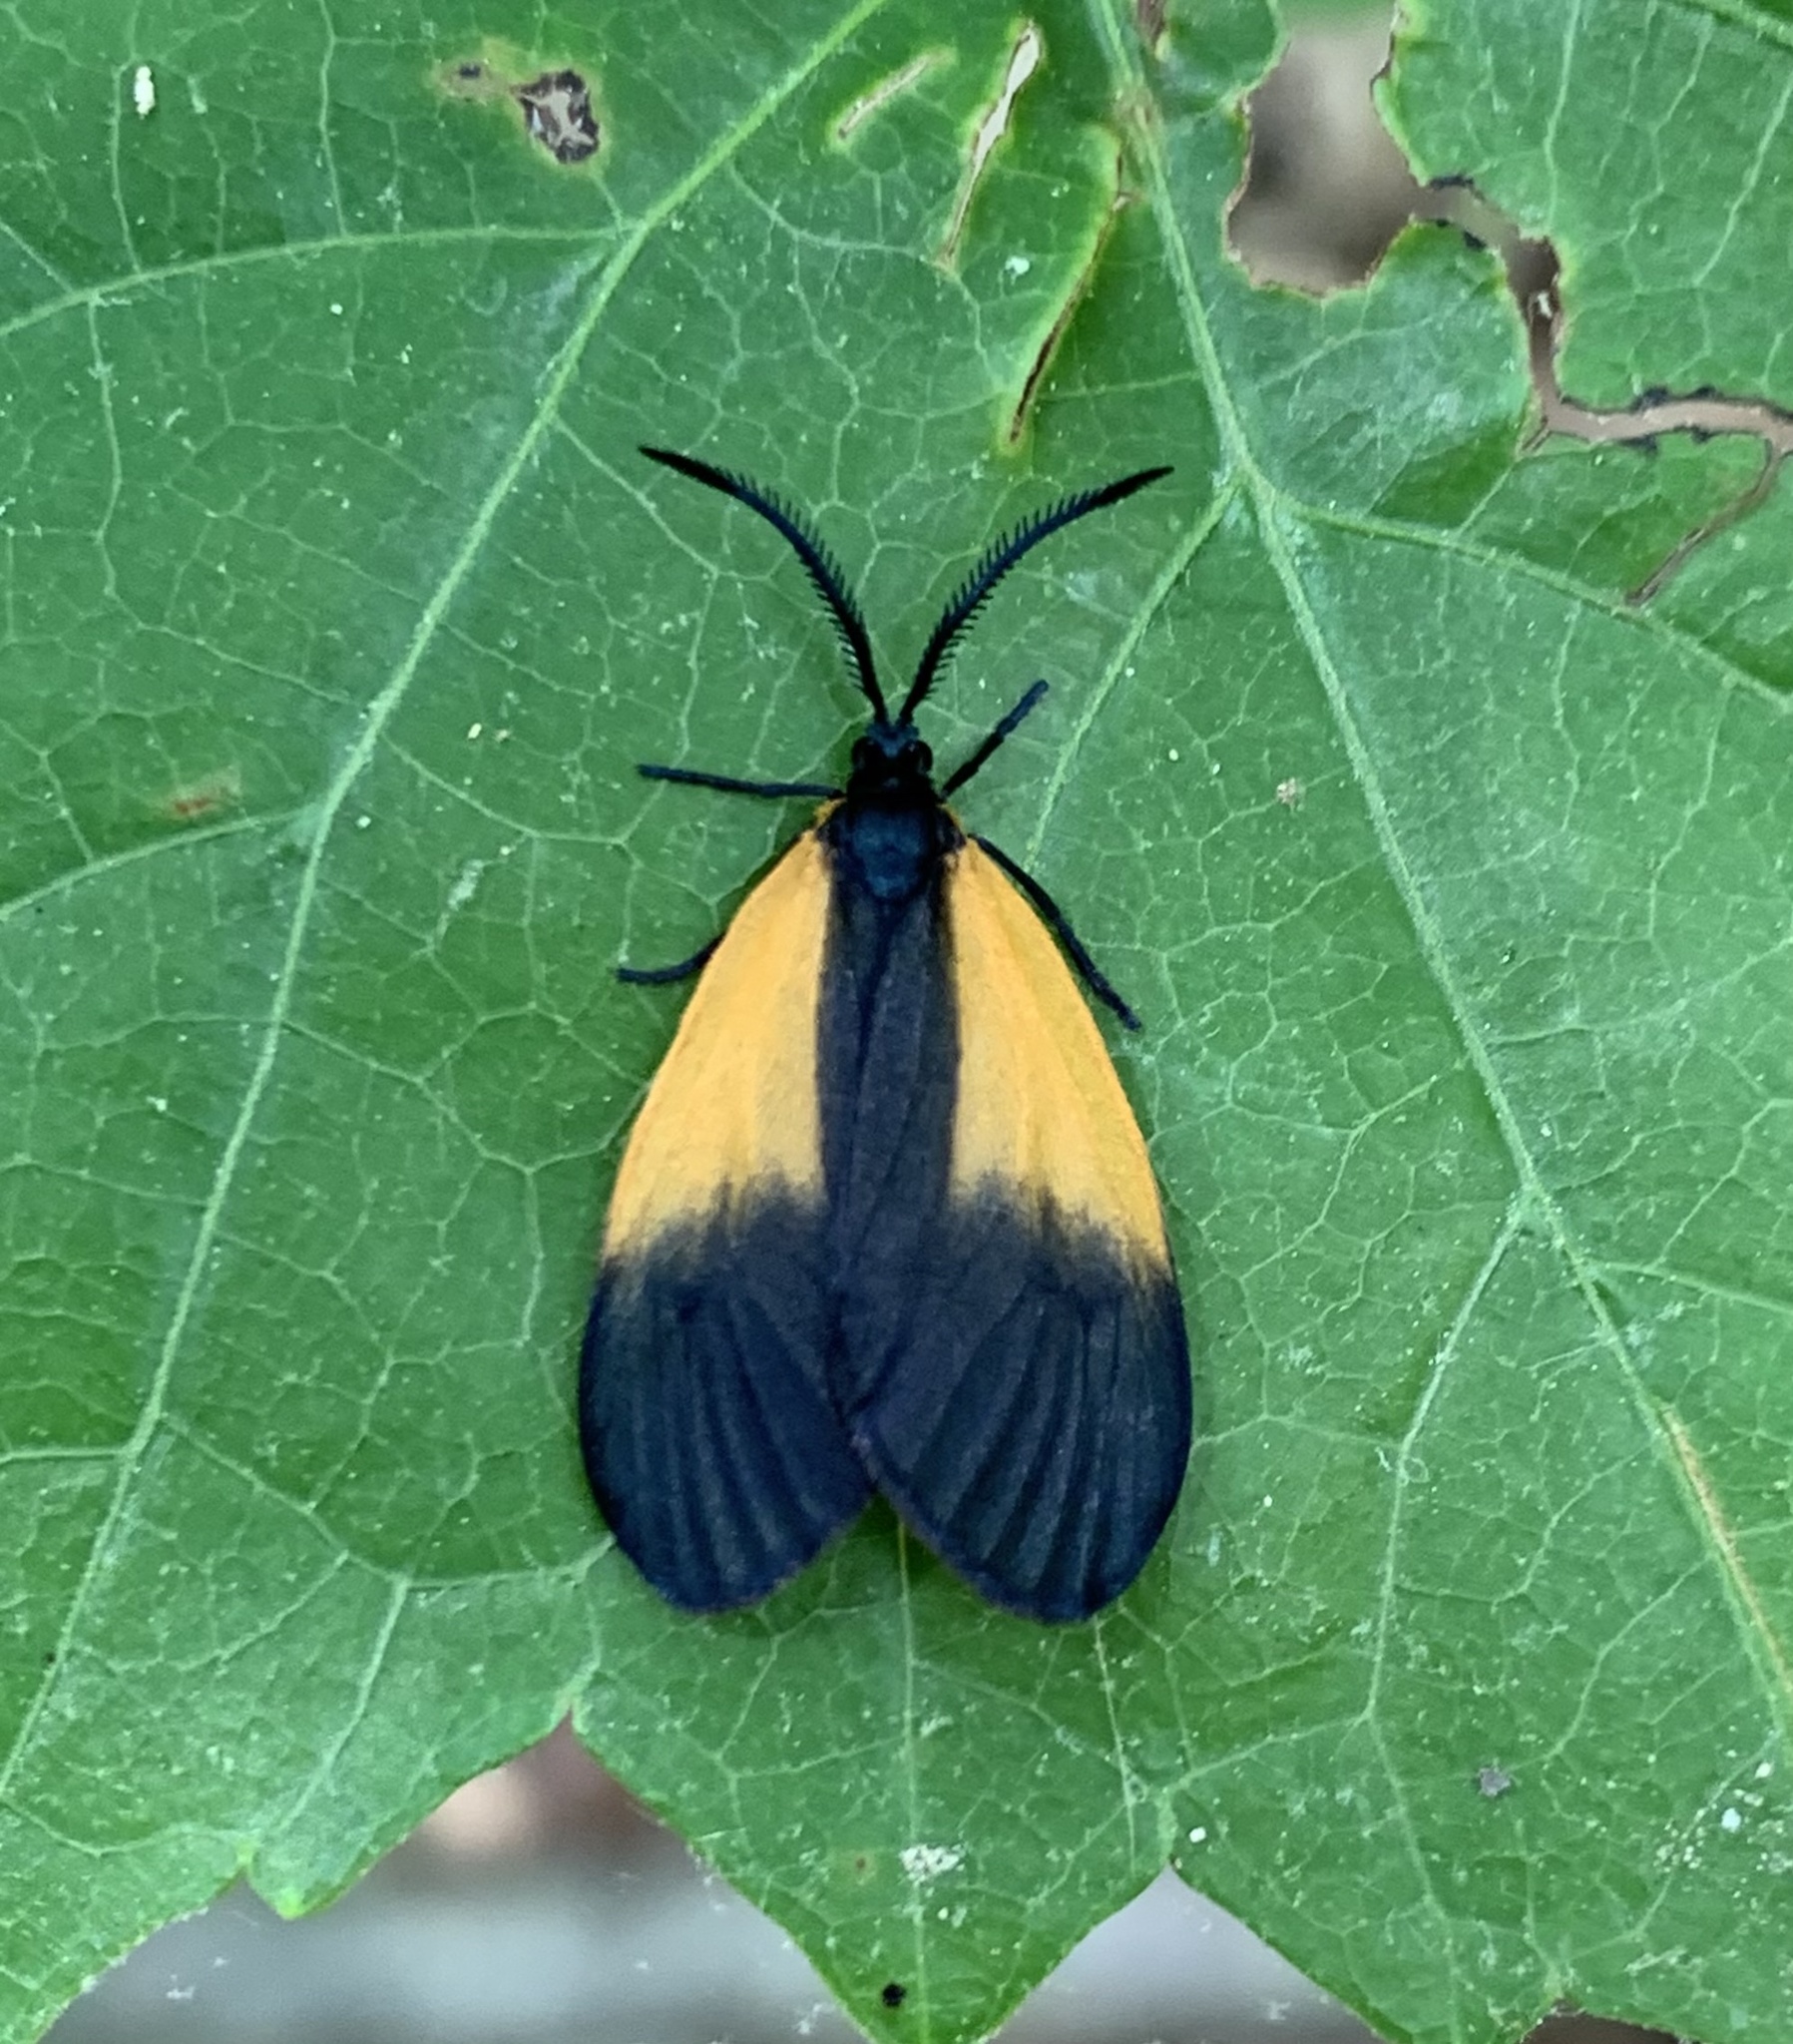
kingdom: Animalia
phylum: Arthropoda
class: Insecta
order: Lepidoptera
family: Zygaenidae
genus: Malthaca
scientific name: Malthaca dimidiata
